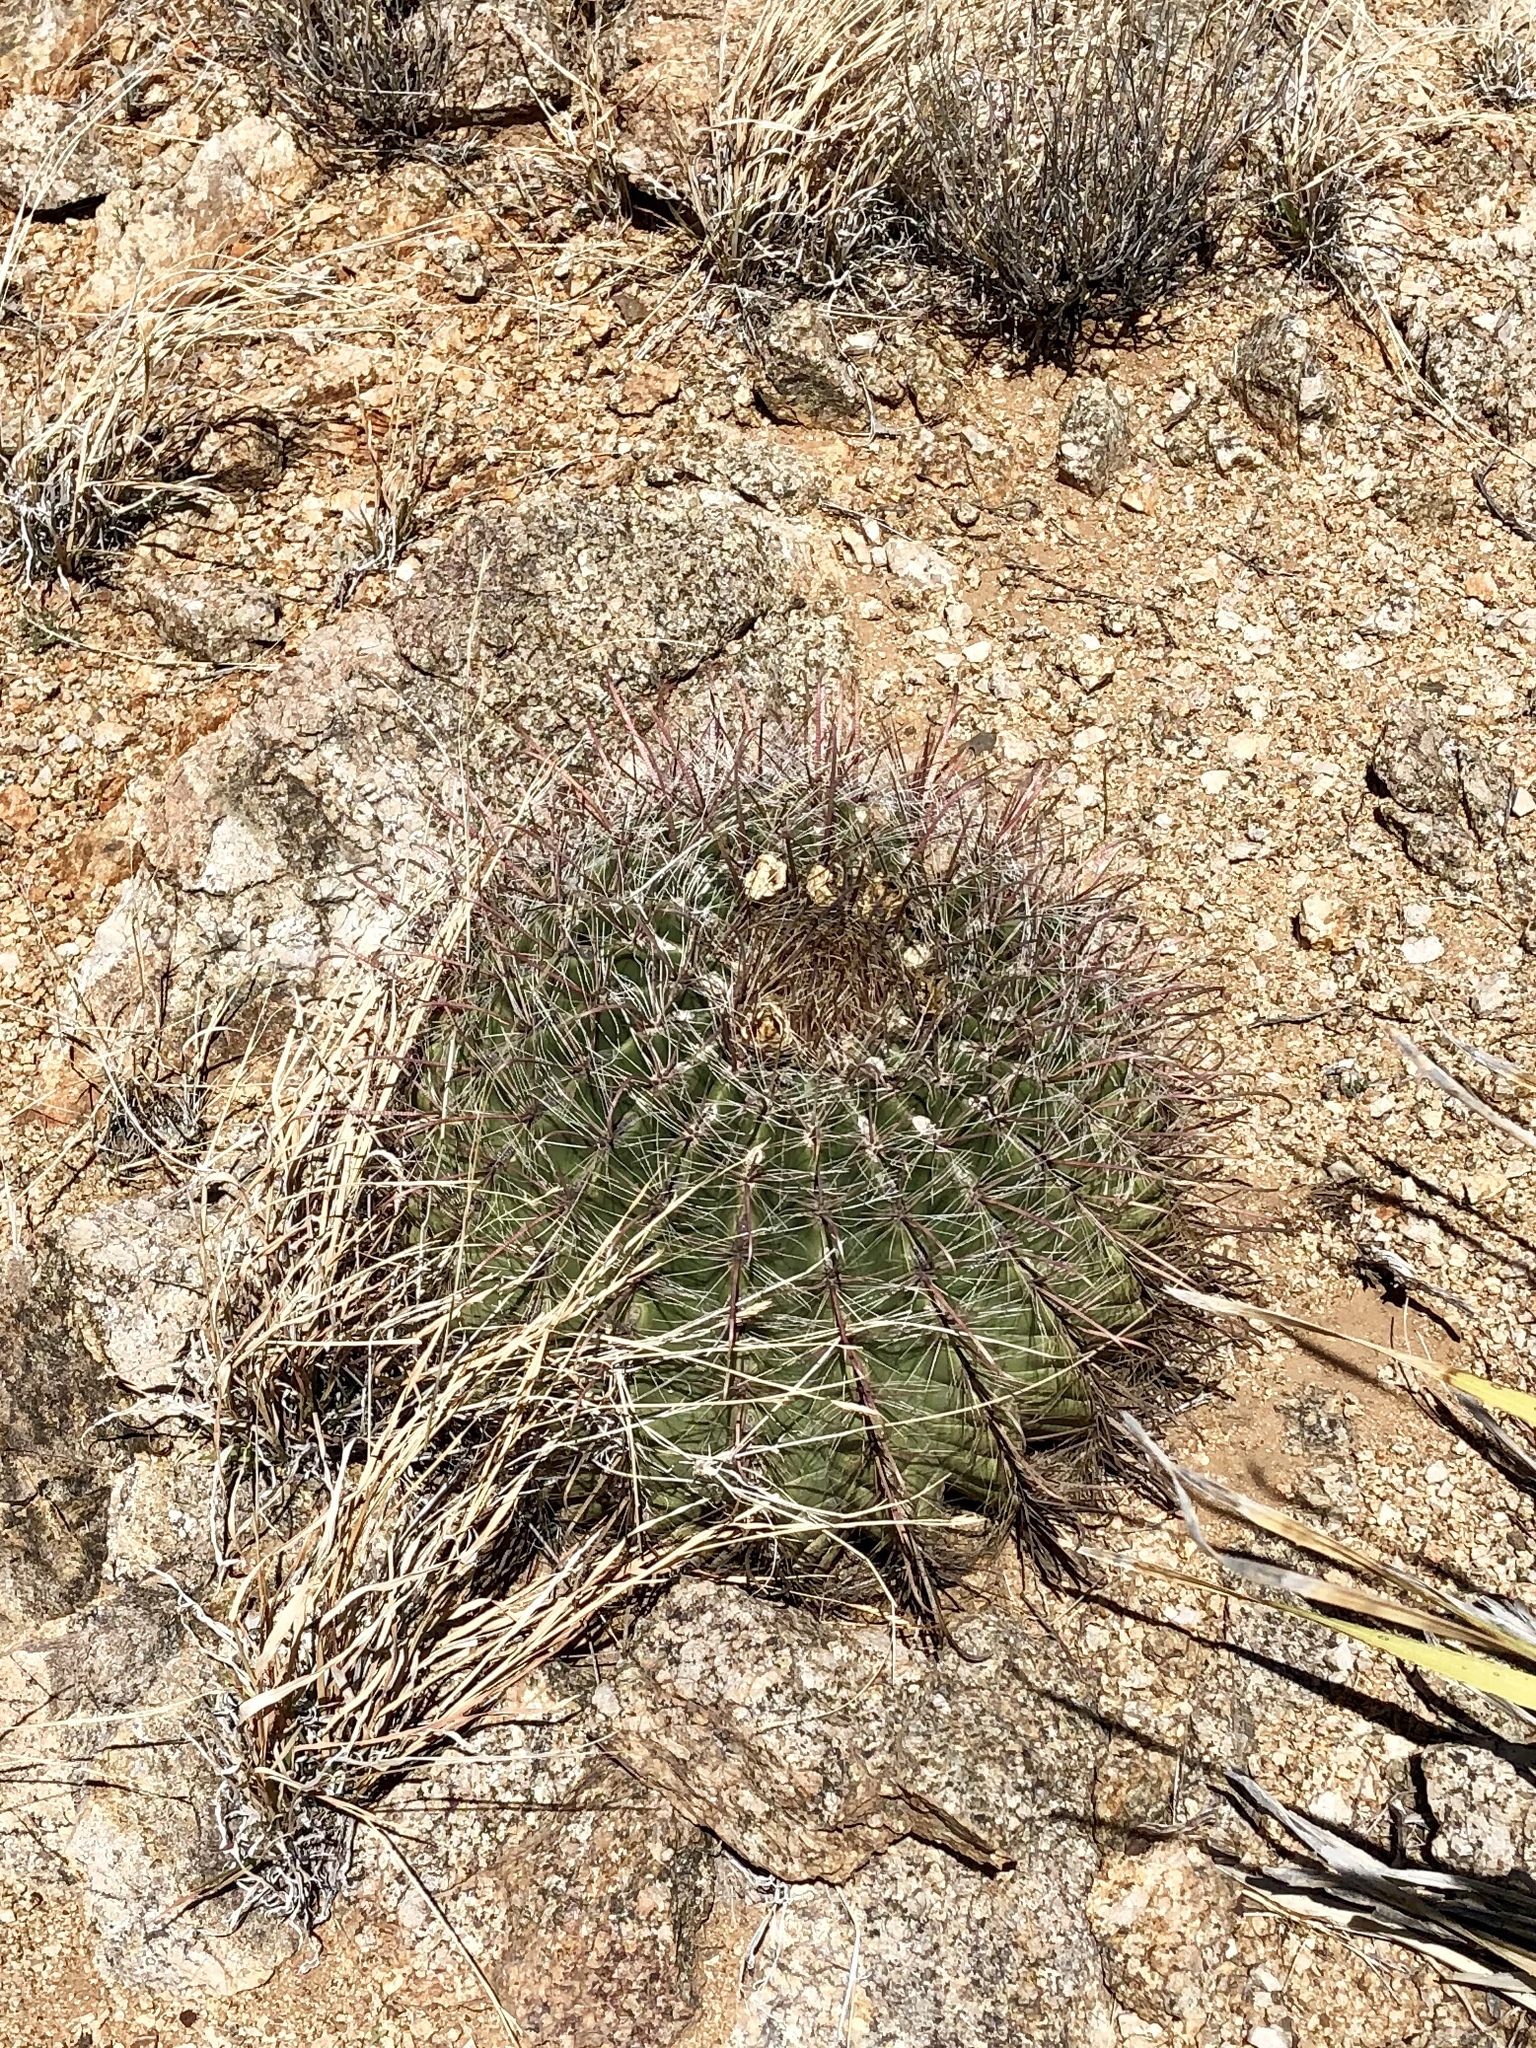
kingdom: Plantae
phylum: Tracheophyta
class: Magnoliopsida
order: Caryophyllales
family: Cactaceae
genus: Ferocactus
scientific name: Ferocactus wislizeni
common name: Candy barrel cactus
